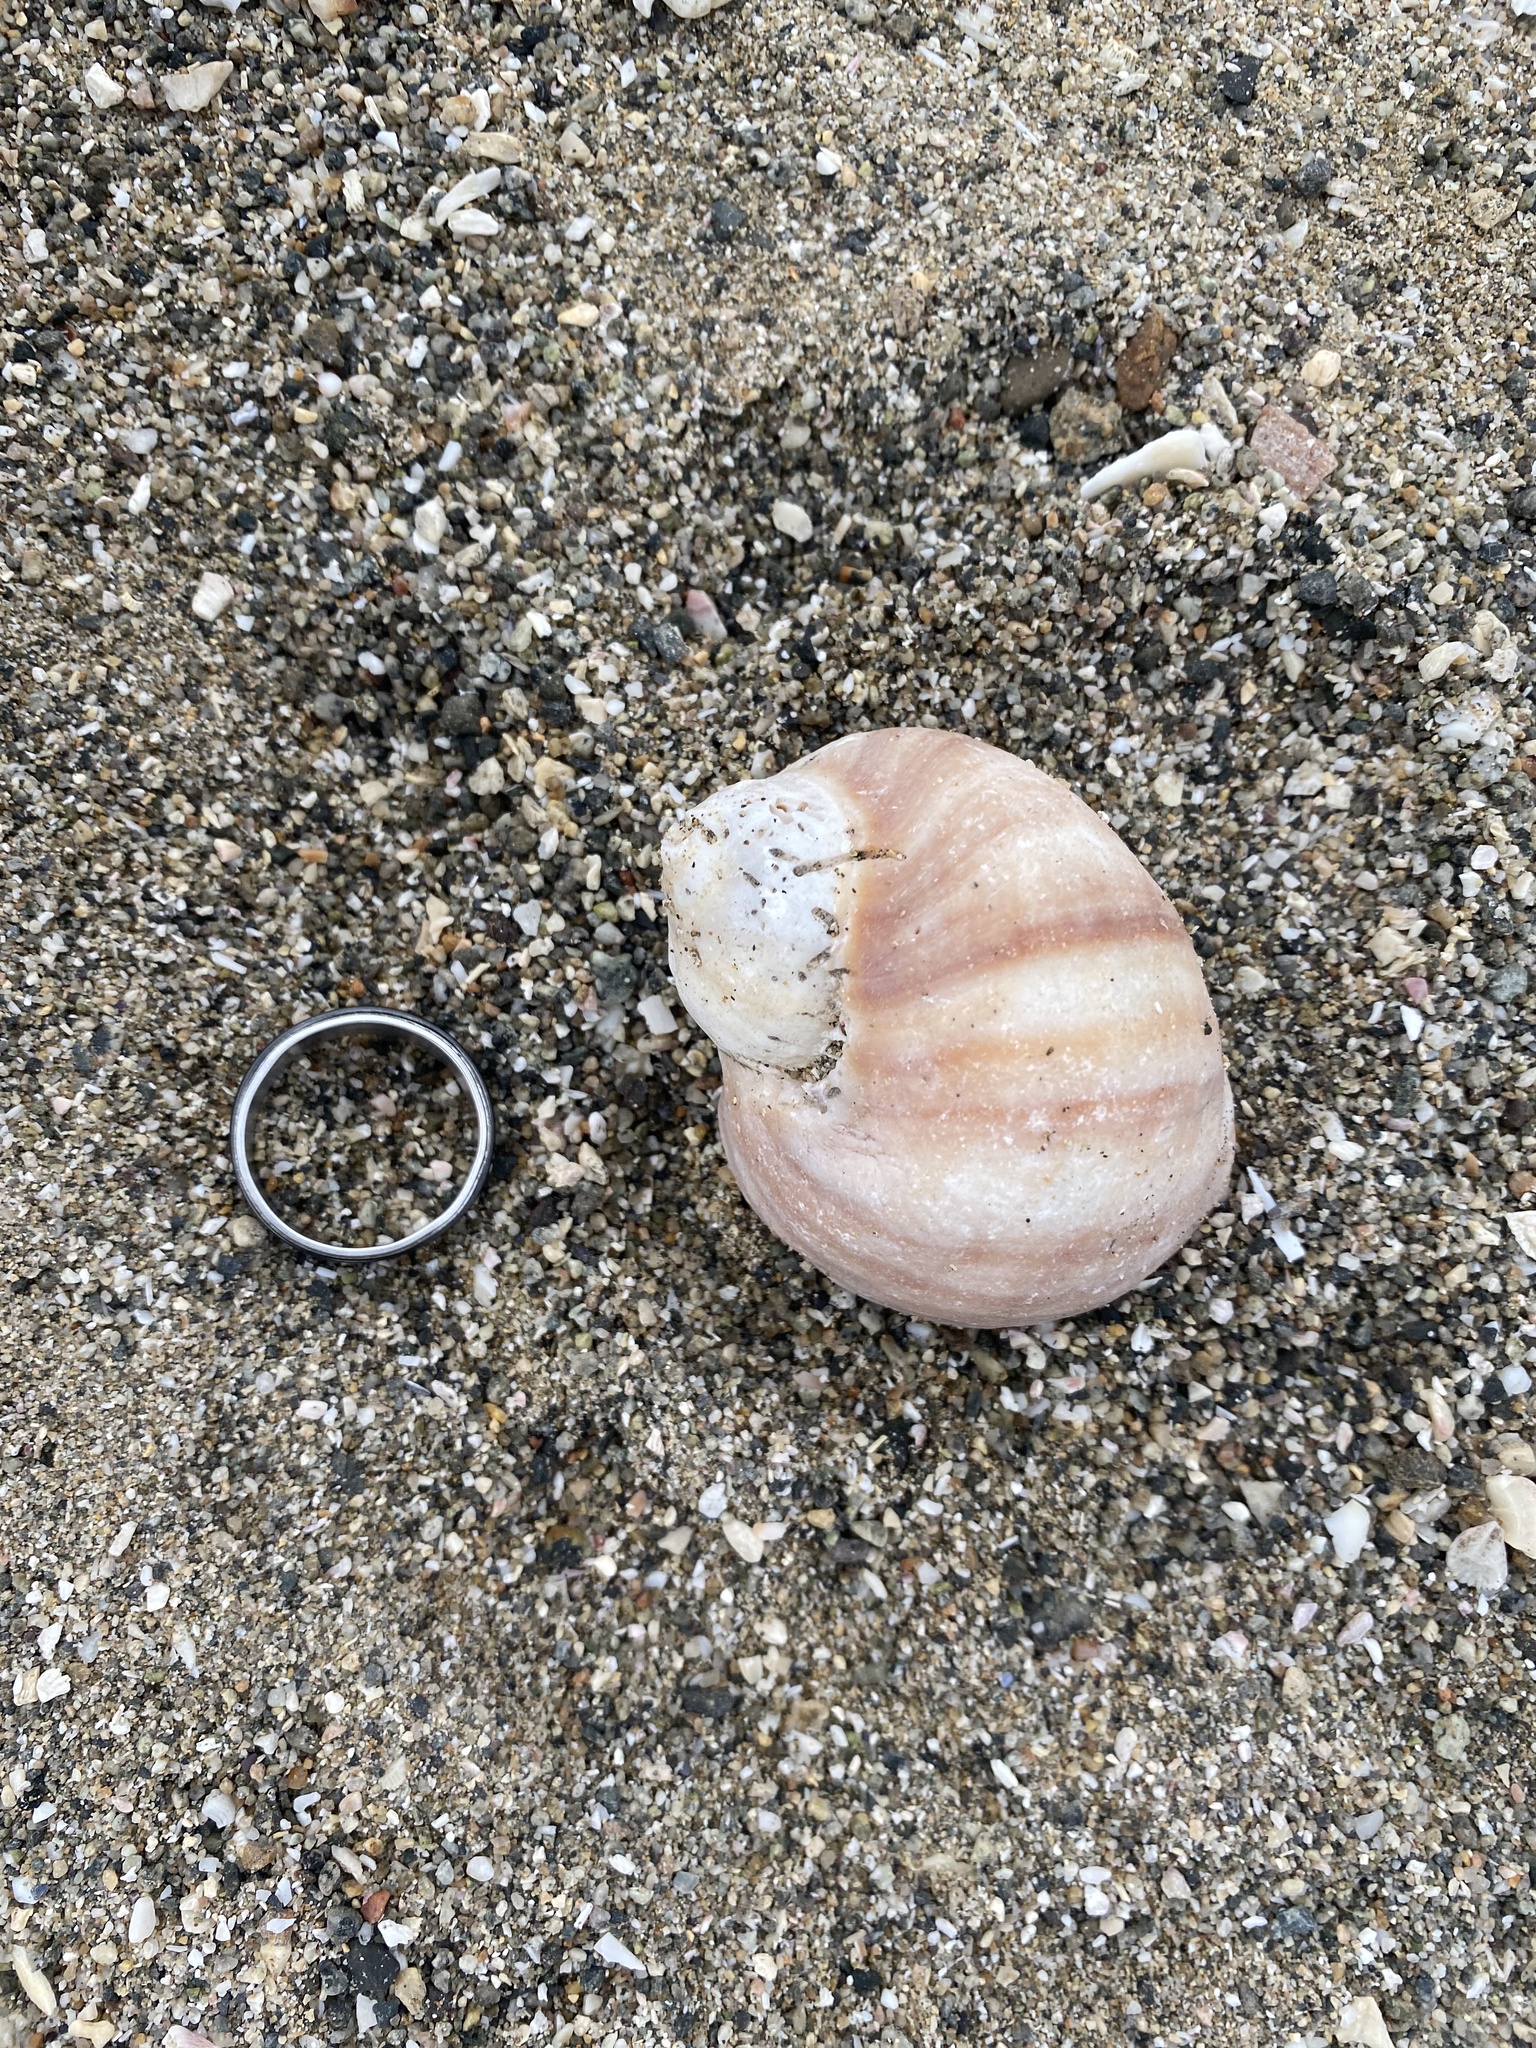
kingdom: Animalia
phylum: Mollusca
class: Gastropoda
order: Neogastropoda
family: Muricidae
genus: Acanthina
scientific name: Acanthina monodon
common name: One-toothed thais
